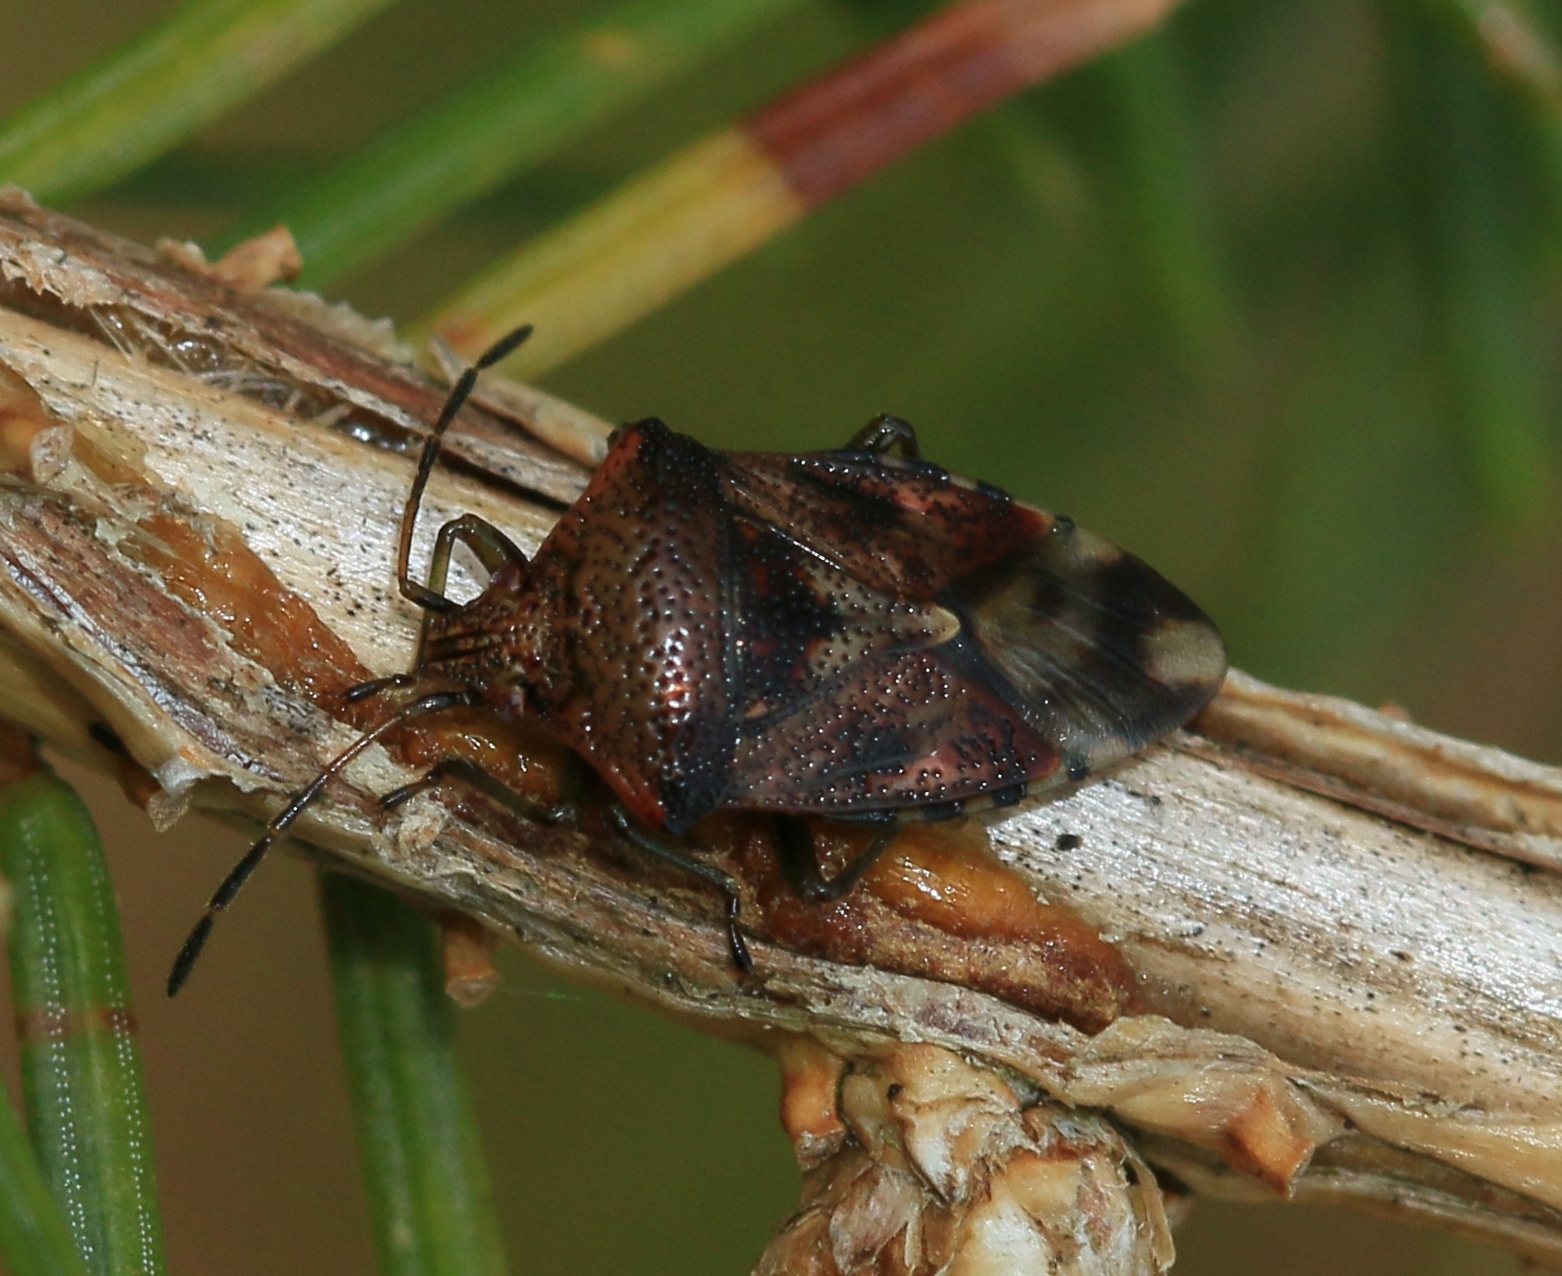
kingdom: Animalia
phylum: Arthropoda
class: Insecta
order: Hemiptera
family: Acanthosomatidae
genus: Elasmucha
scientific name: Elasmucha grisea
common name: Parent bug
